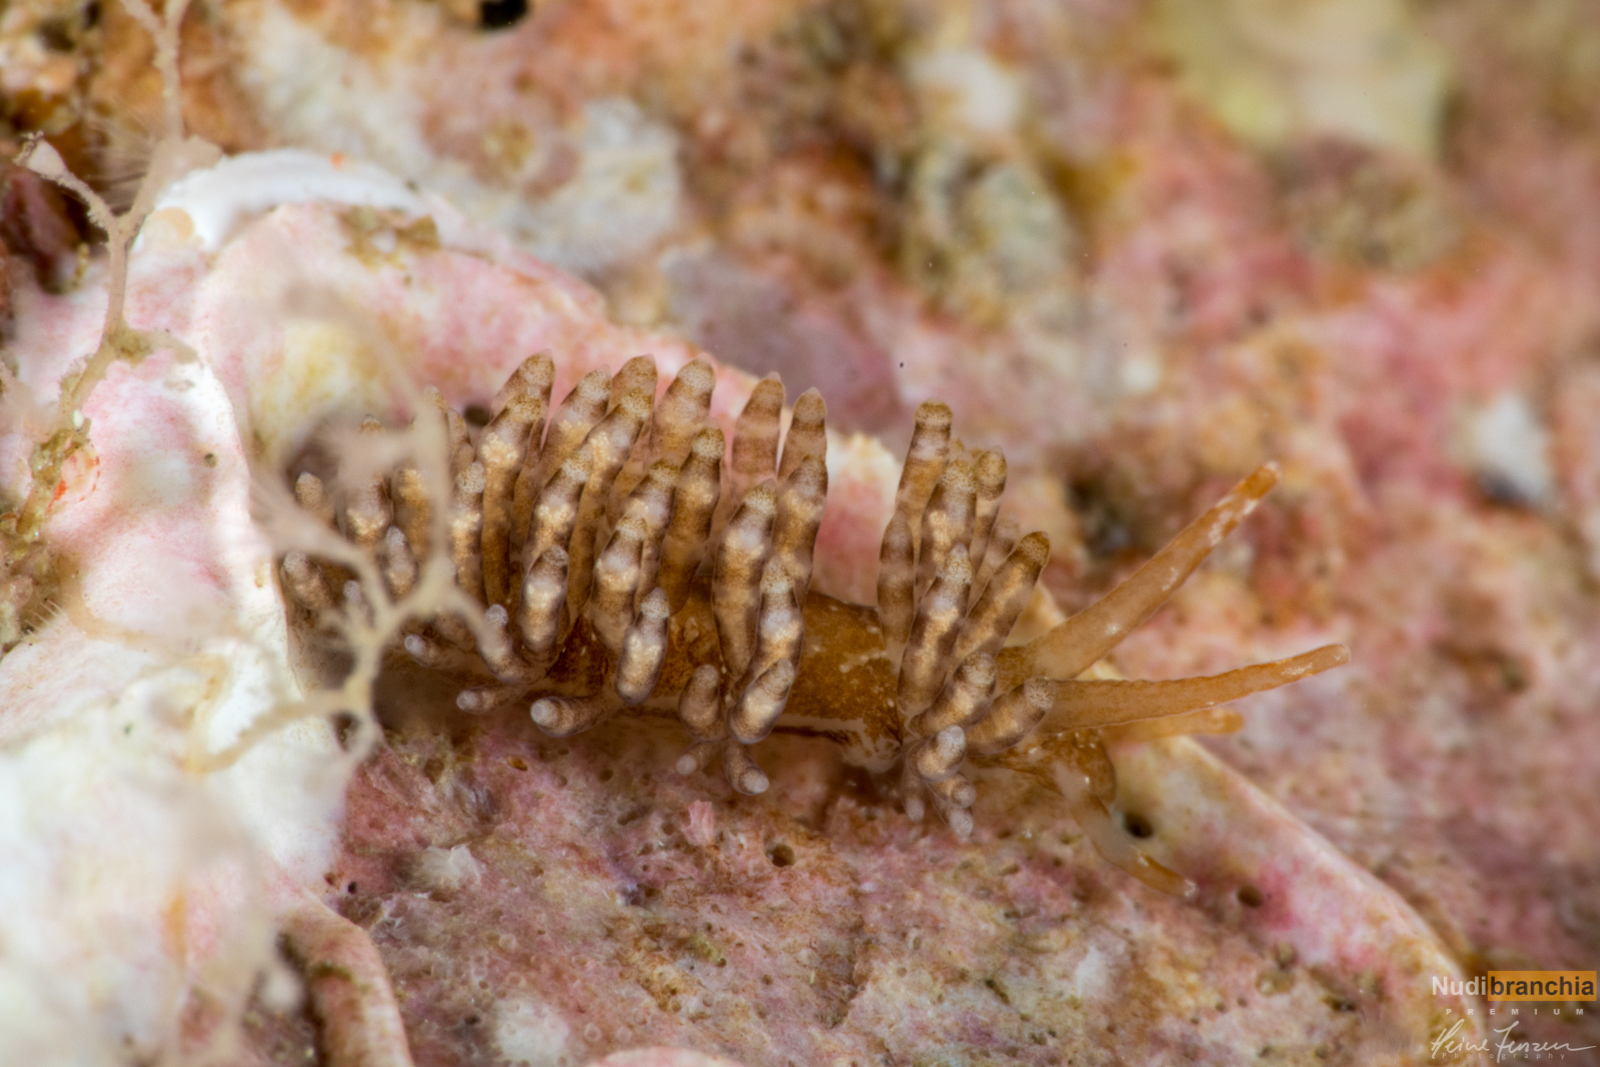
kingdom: Animalia
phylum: Mollusca
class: Gastropoda
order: Nudibranchia
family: Eubranchidae
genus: Eubranchus
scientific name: Eubranchus vittatus
